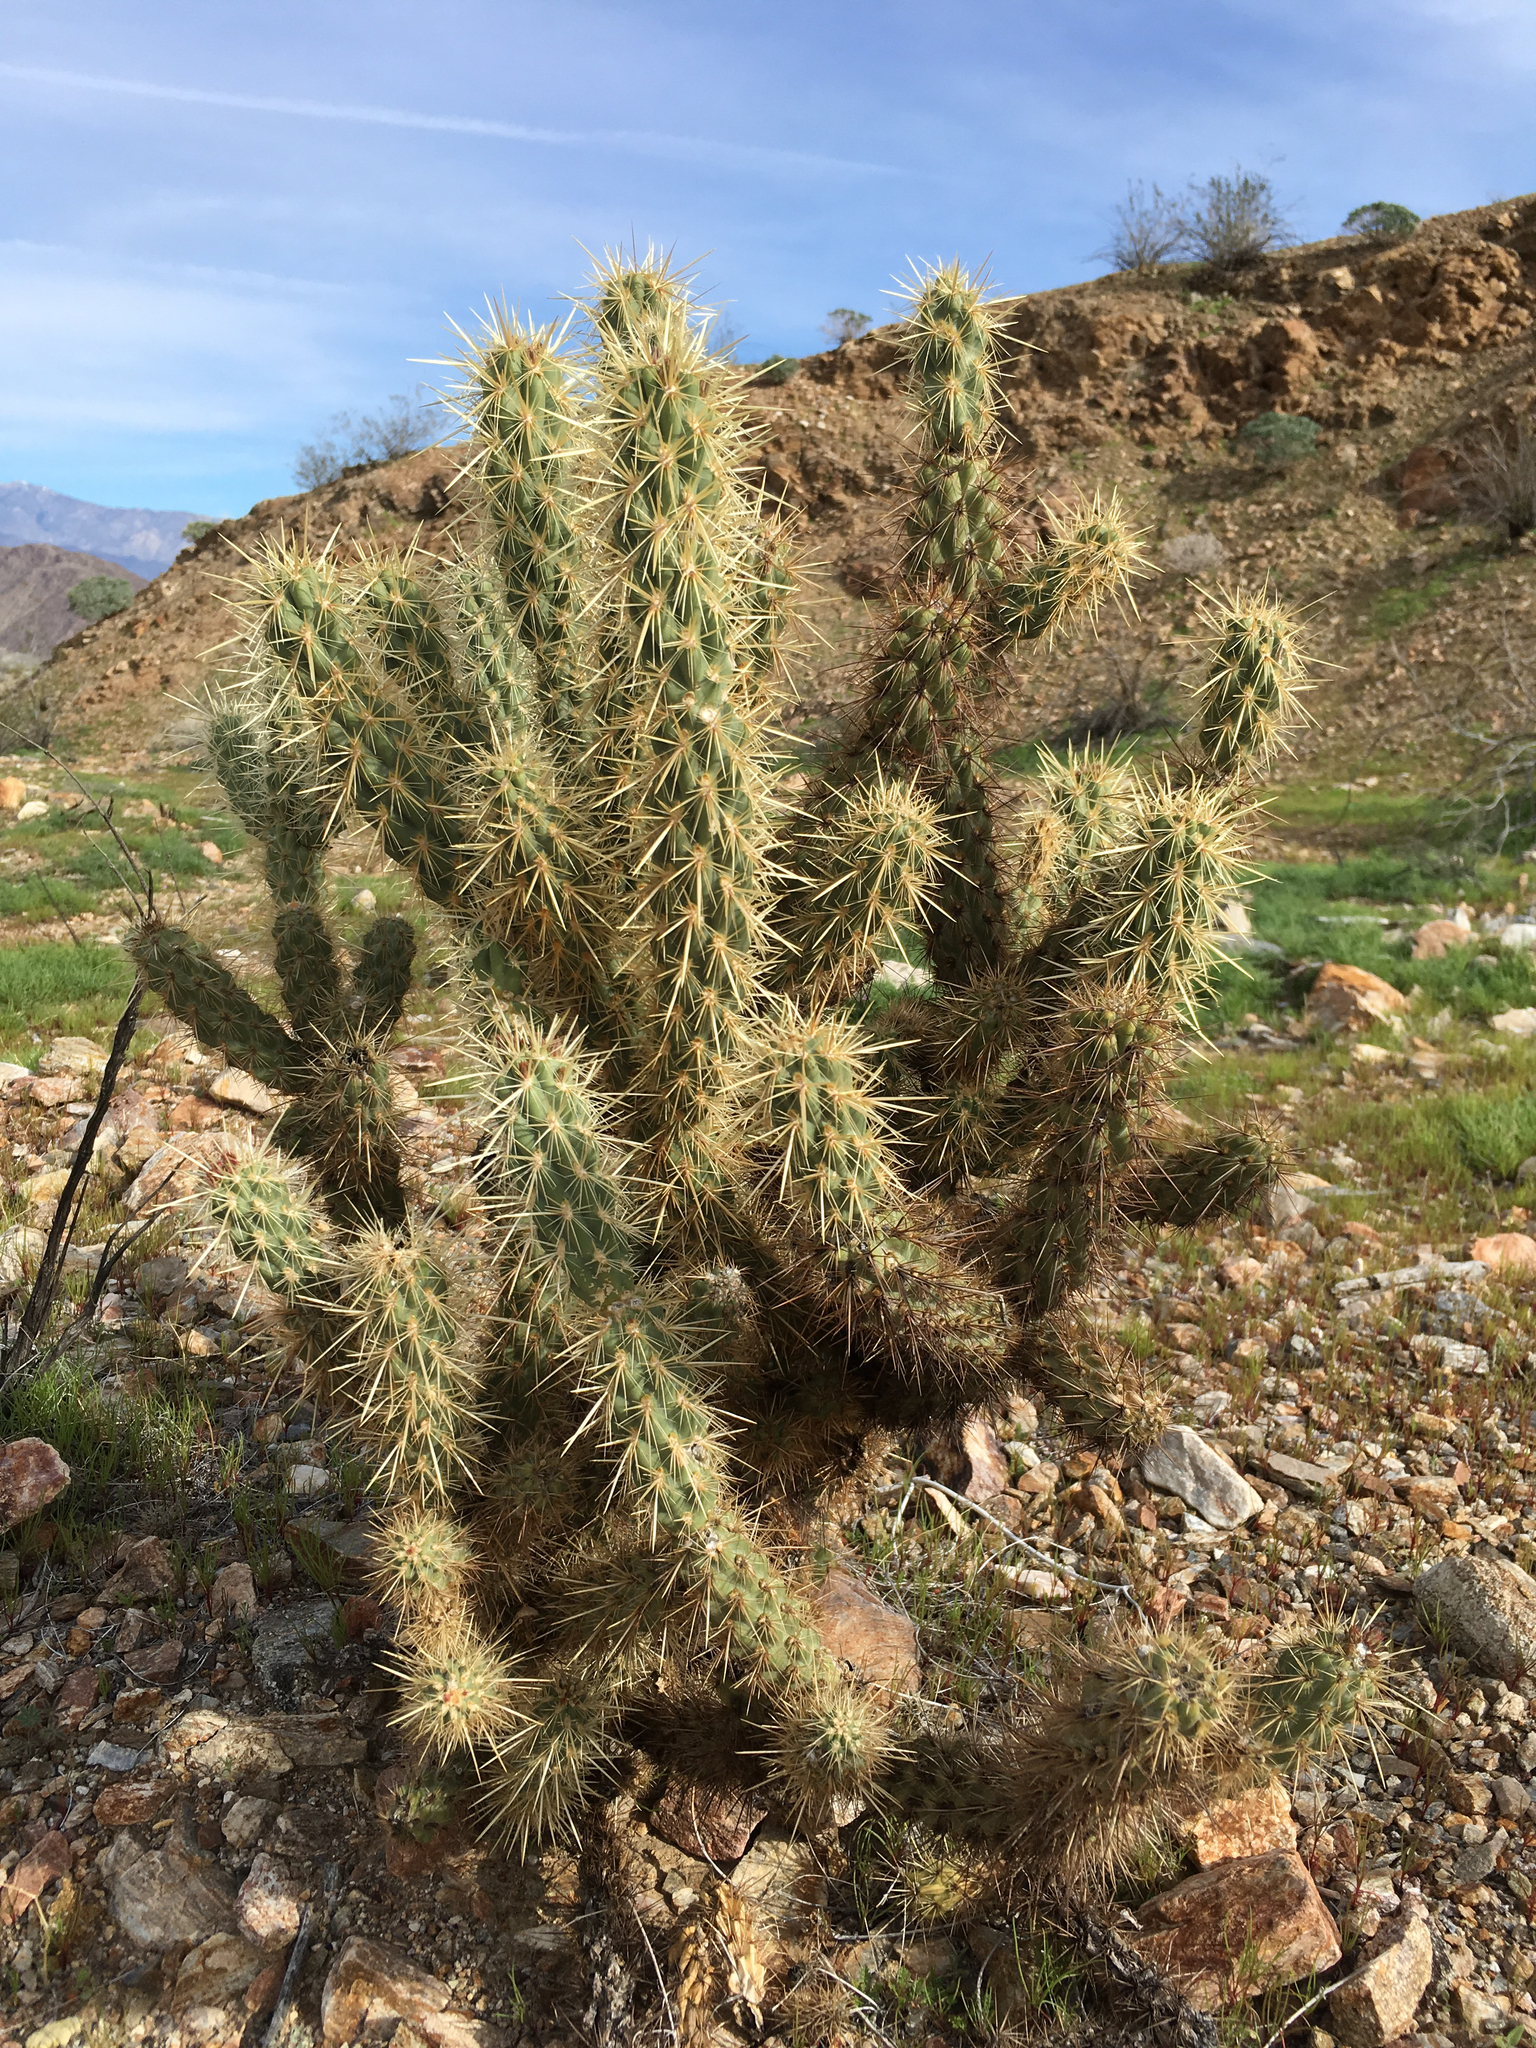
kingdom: Plantae
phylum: Tracheophyta
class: Magnoliopsida
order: Caryophyllales
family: Cactaceae
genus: Cylindropuntia
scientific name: Cylindropuntia ganderi
